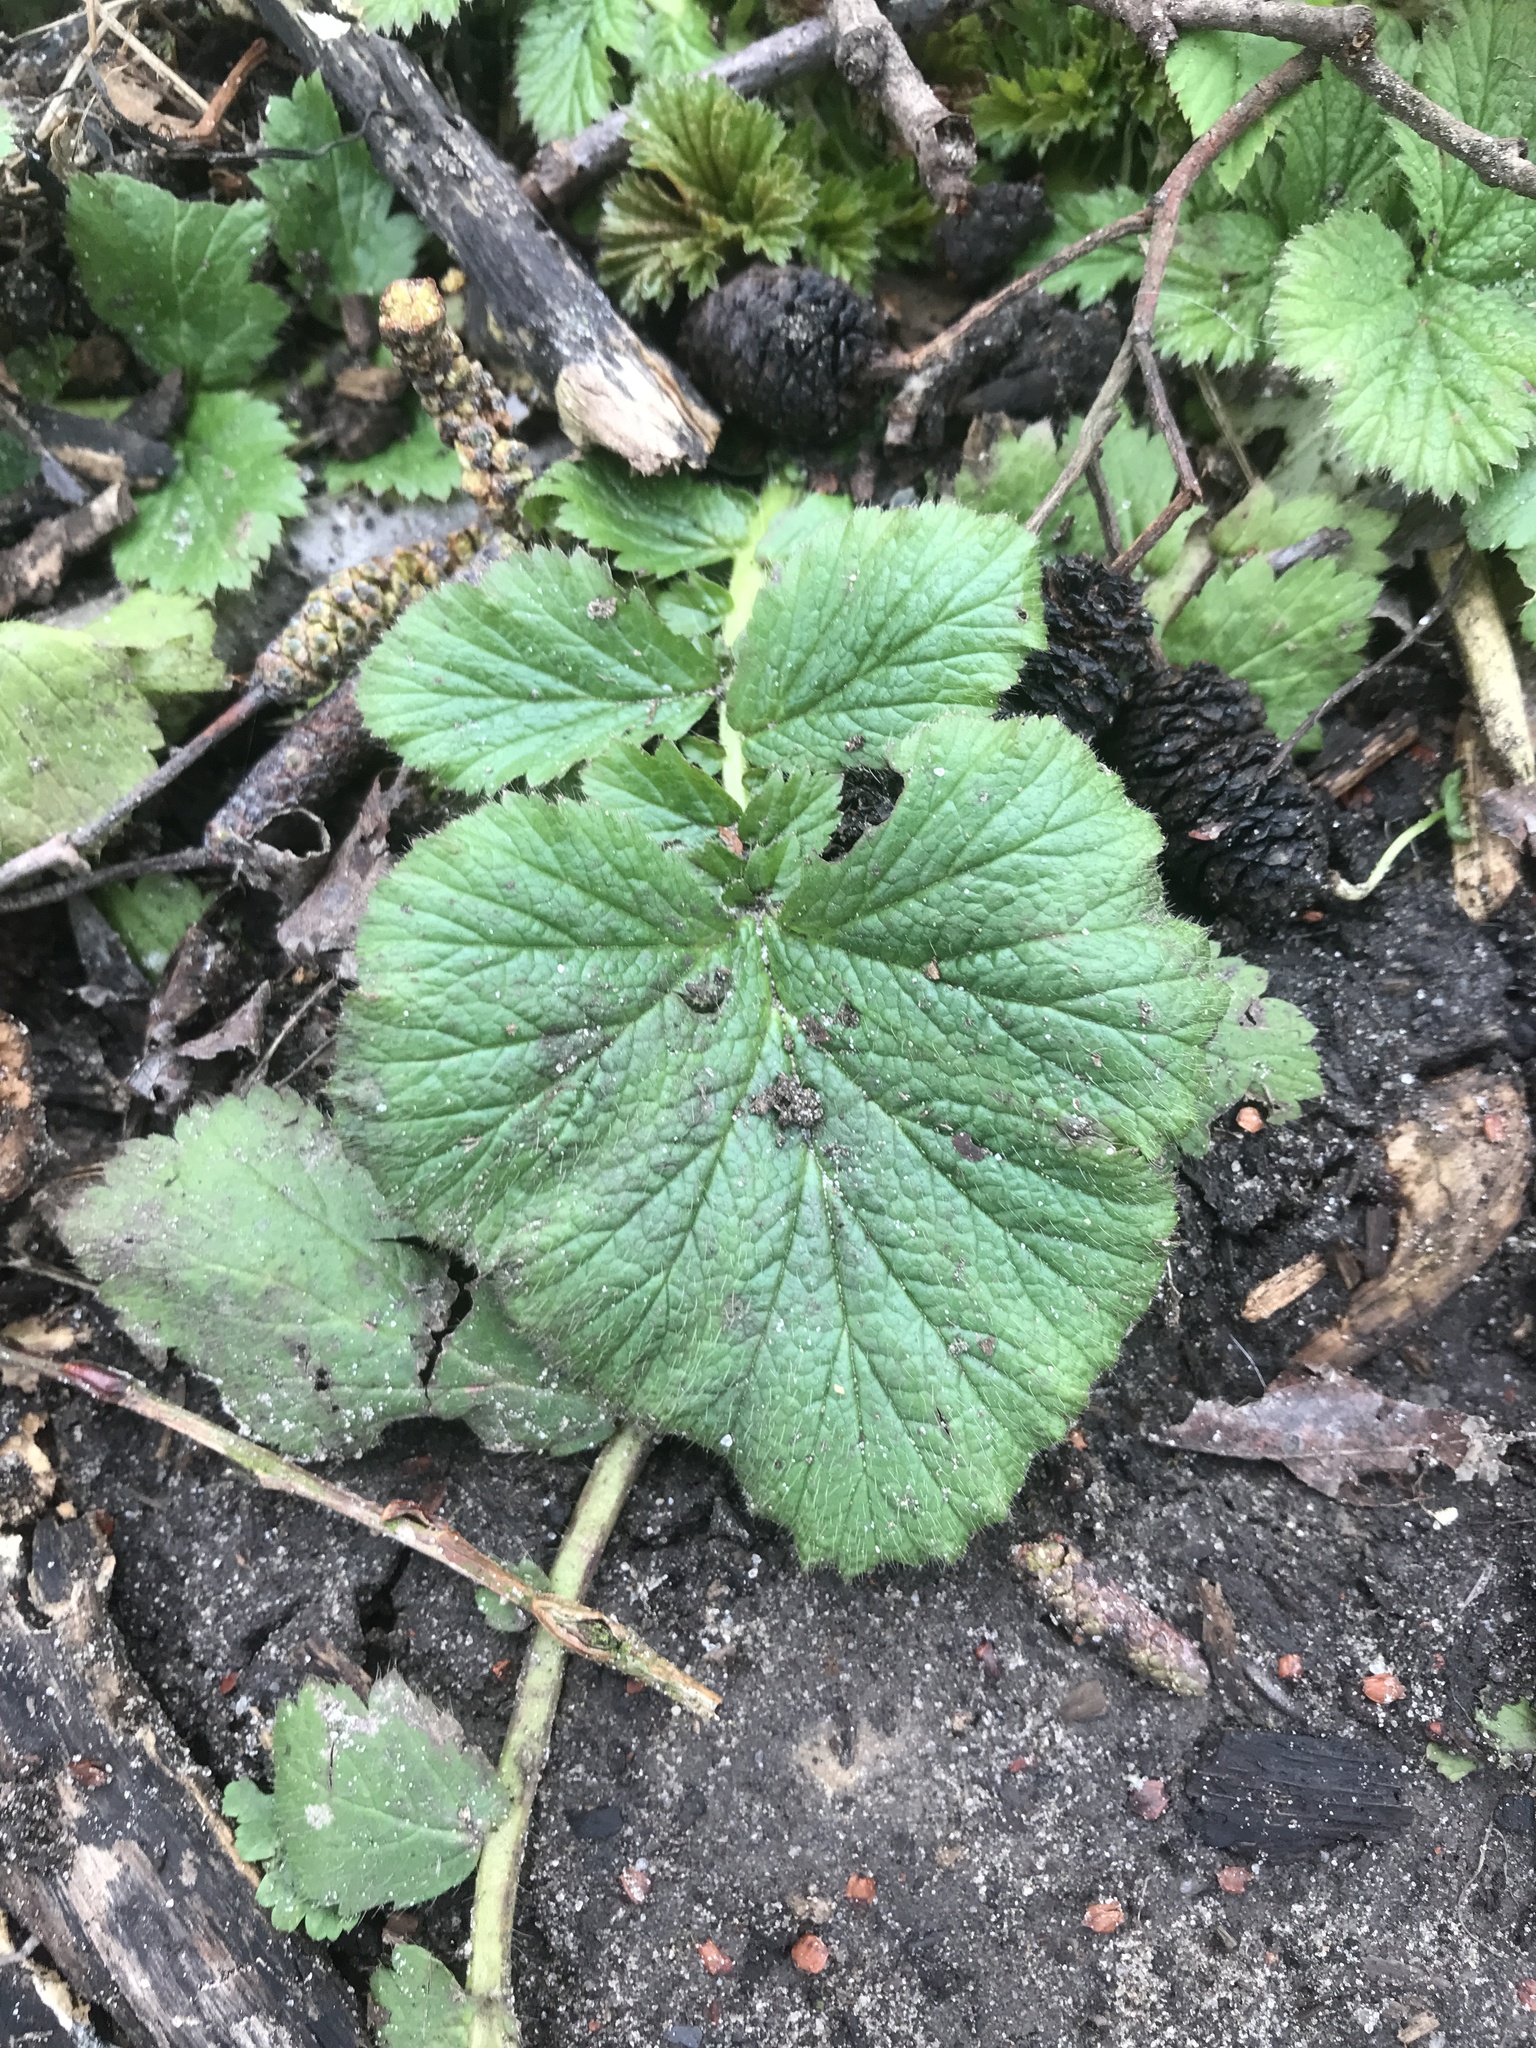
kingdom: Plantae
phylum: Tracheophyta
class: Magnoliopsida
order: Rosales
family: Rosaceae
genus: Geum
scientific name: Geum urbanum
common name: Wood avens
